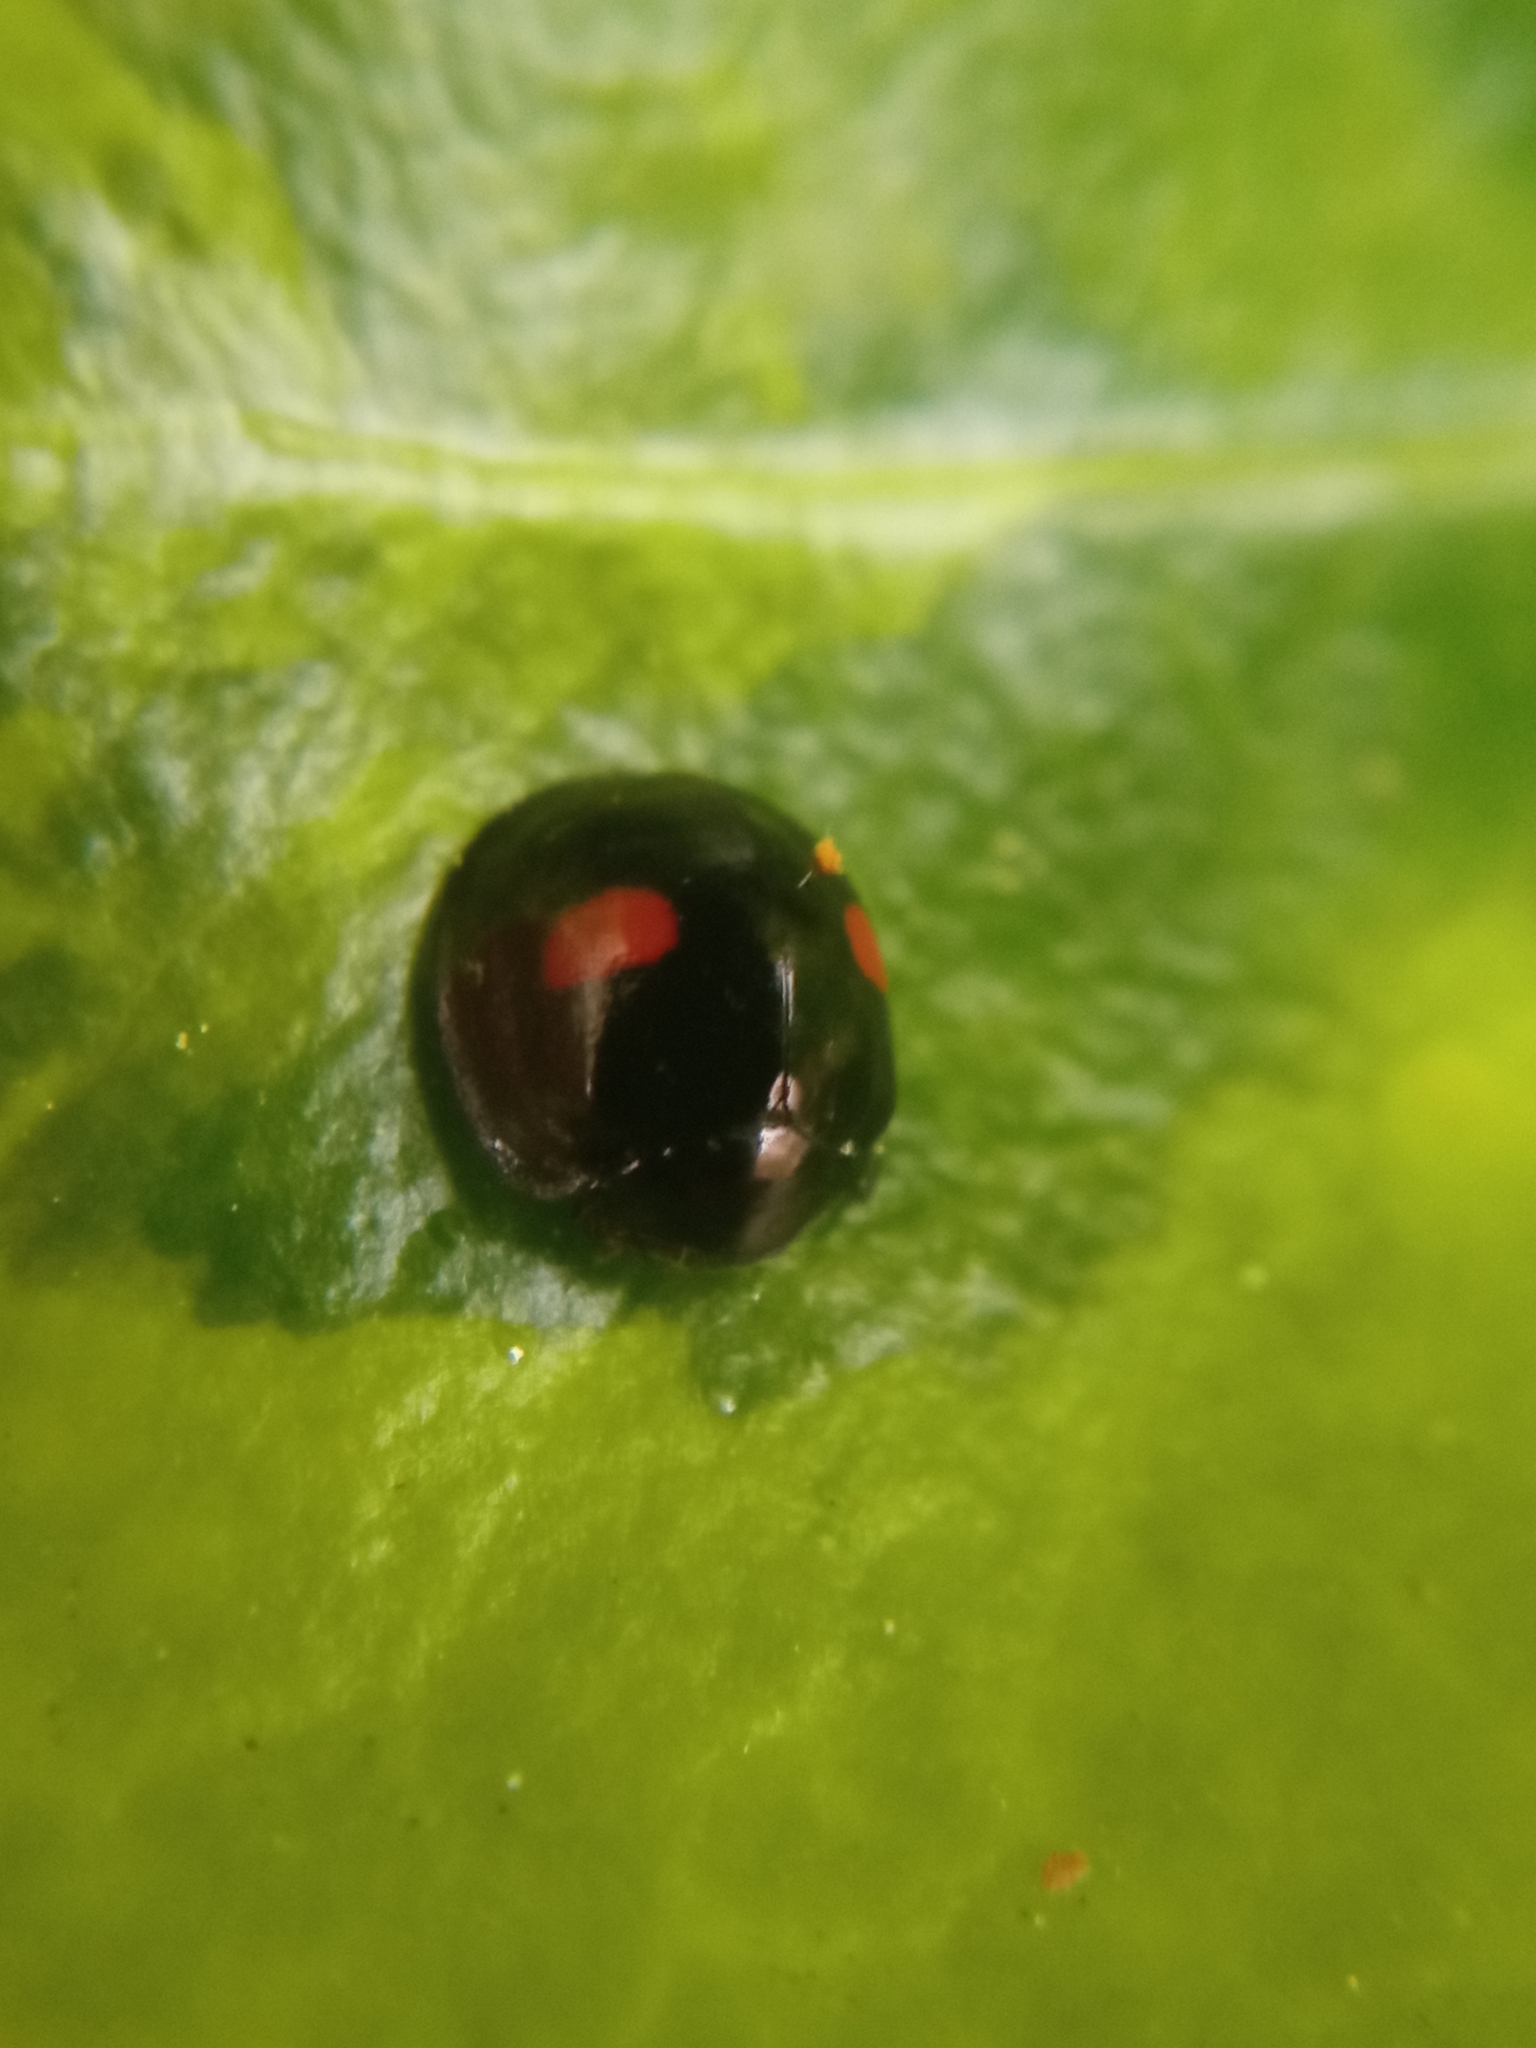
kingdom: Animalia
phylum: Arthropoda
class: Insecta
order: Coleoptera
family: Coccinellidae
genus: Chilocorus
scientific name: Chilocorus renipustulatus
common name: Kidney-spot ladybird
